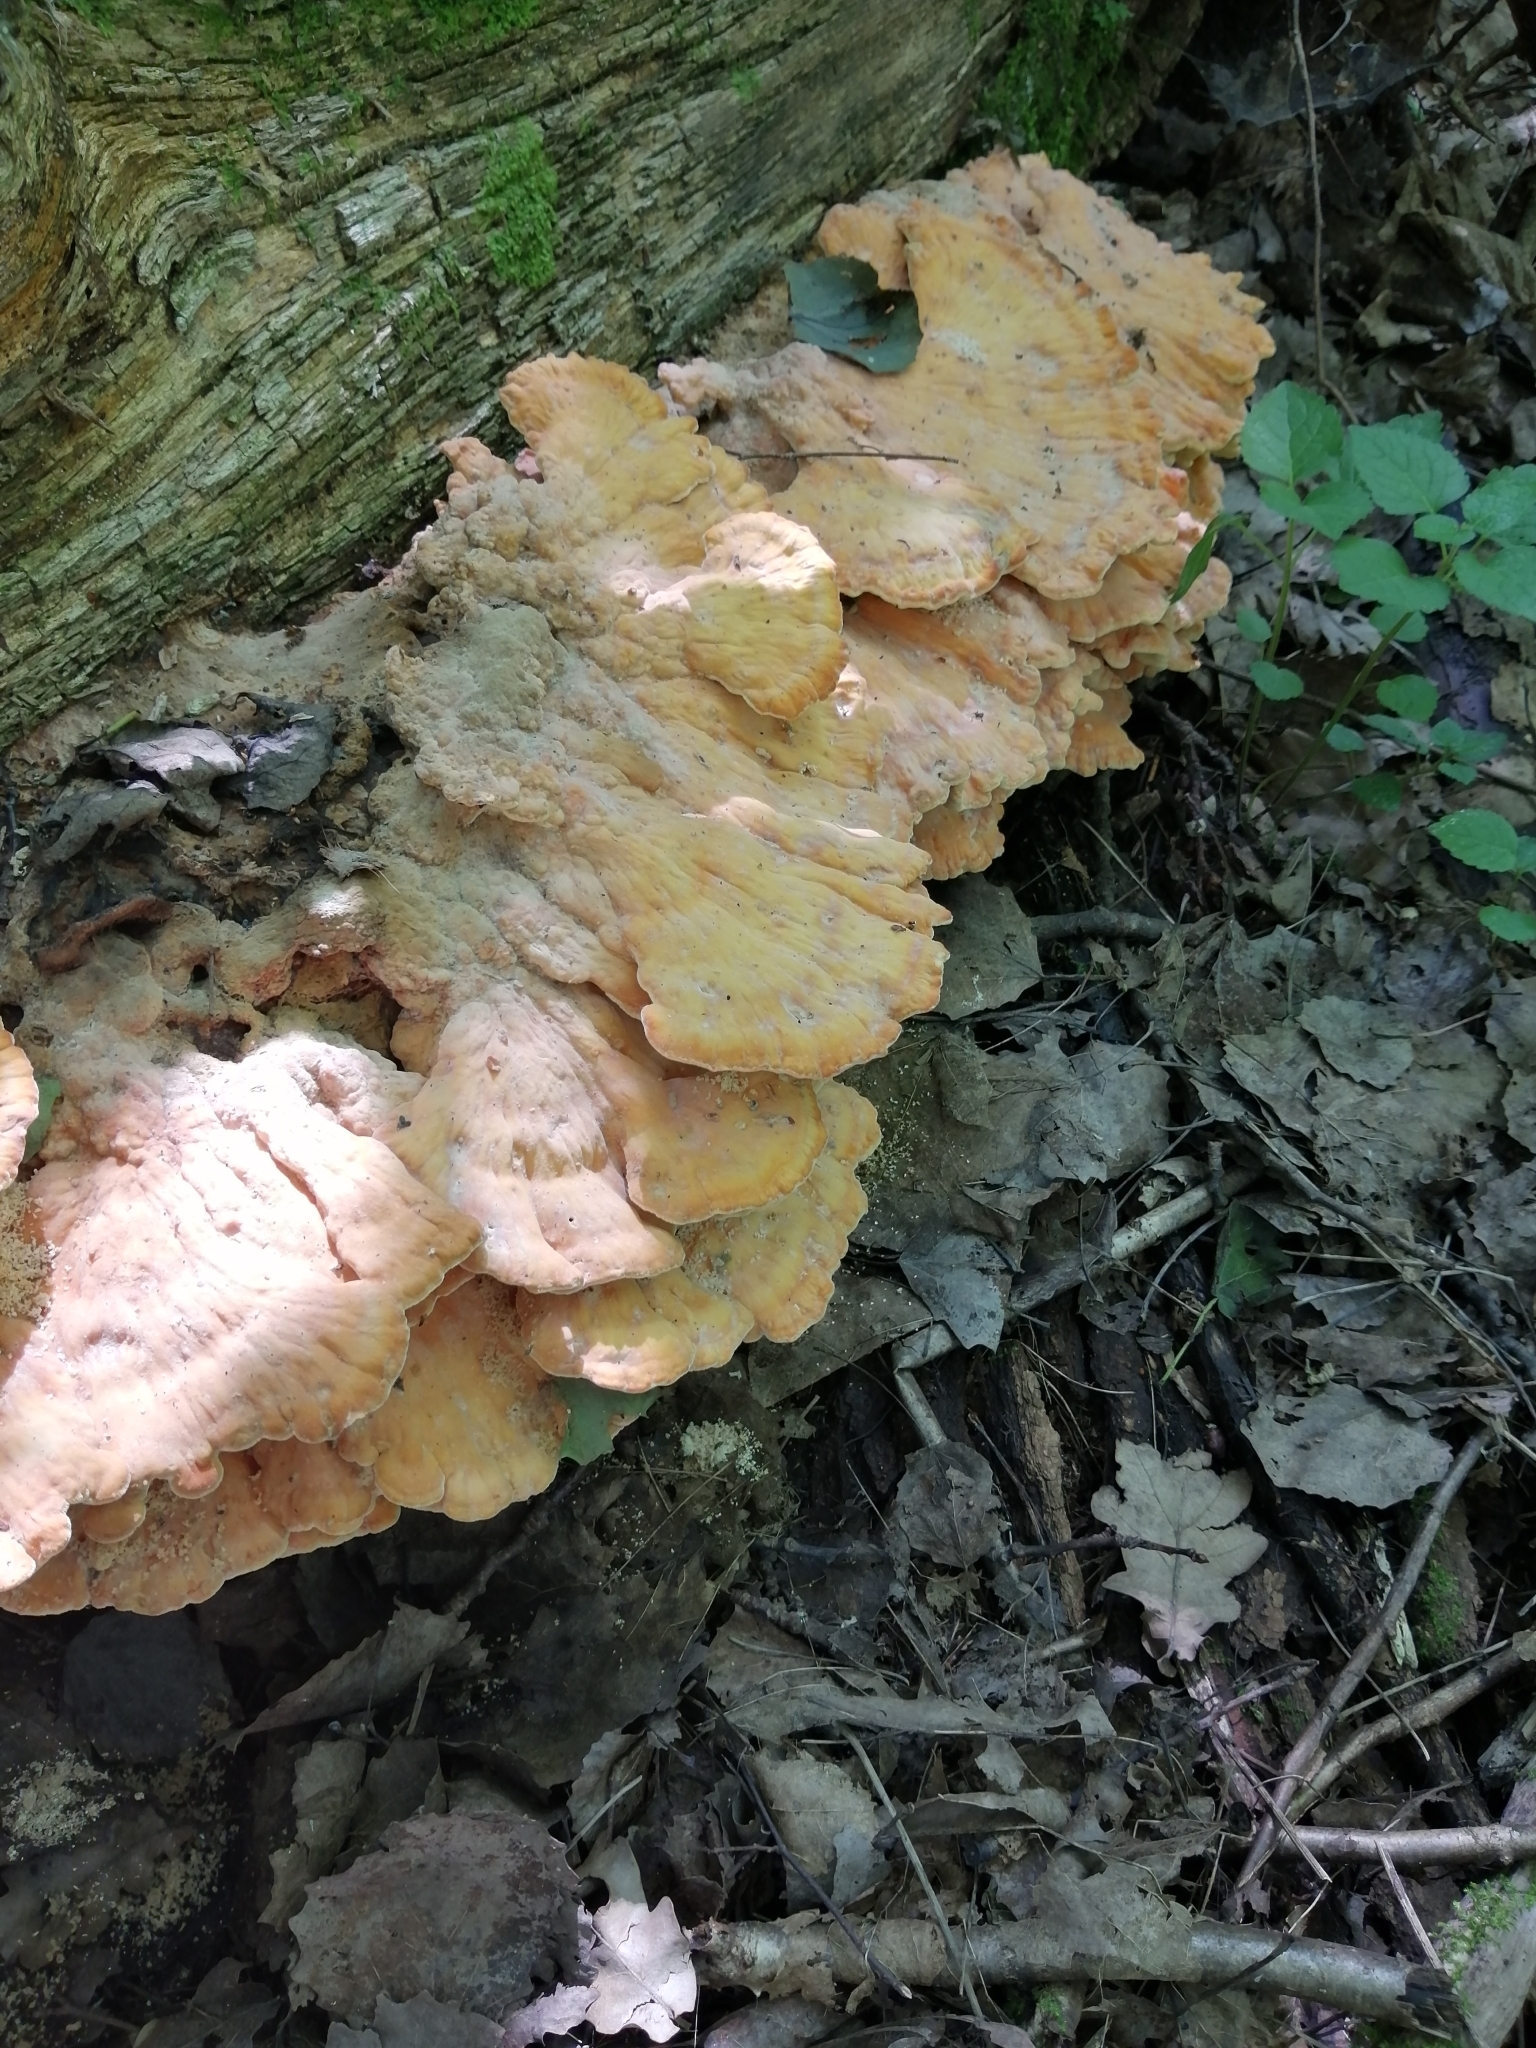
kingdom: Fungi
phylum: Basidiomycota
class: Agaricomycetes
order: Polyporales
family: Laetiporaceae
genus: Laetiporus
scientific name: Laetiporus sulphureus
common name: Chicken of the woods
